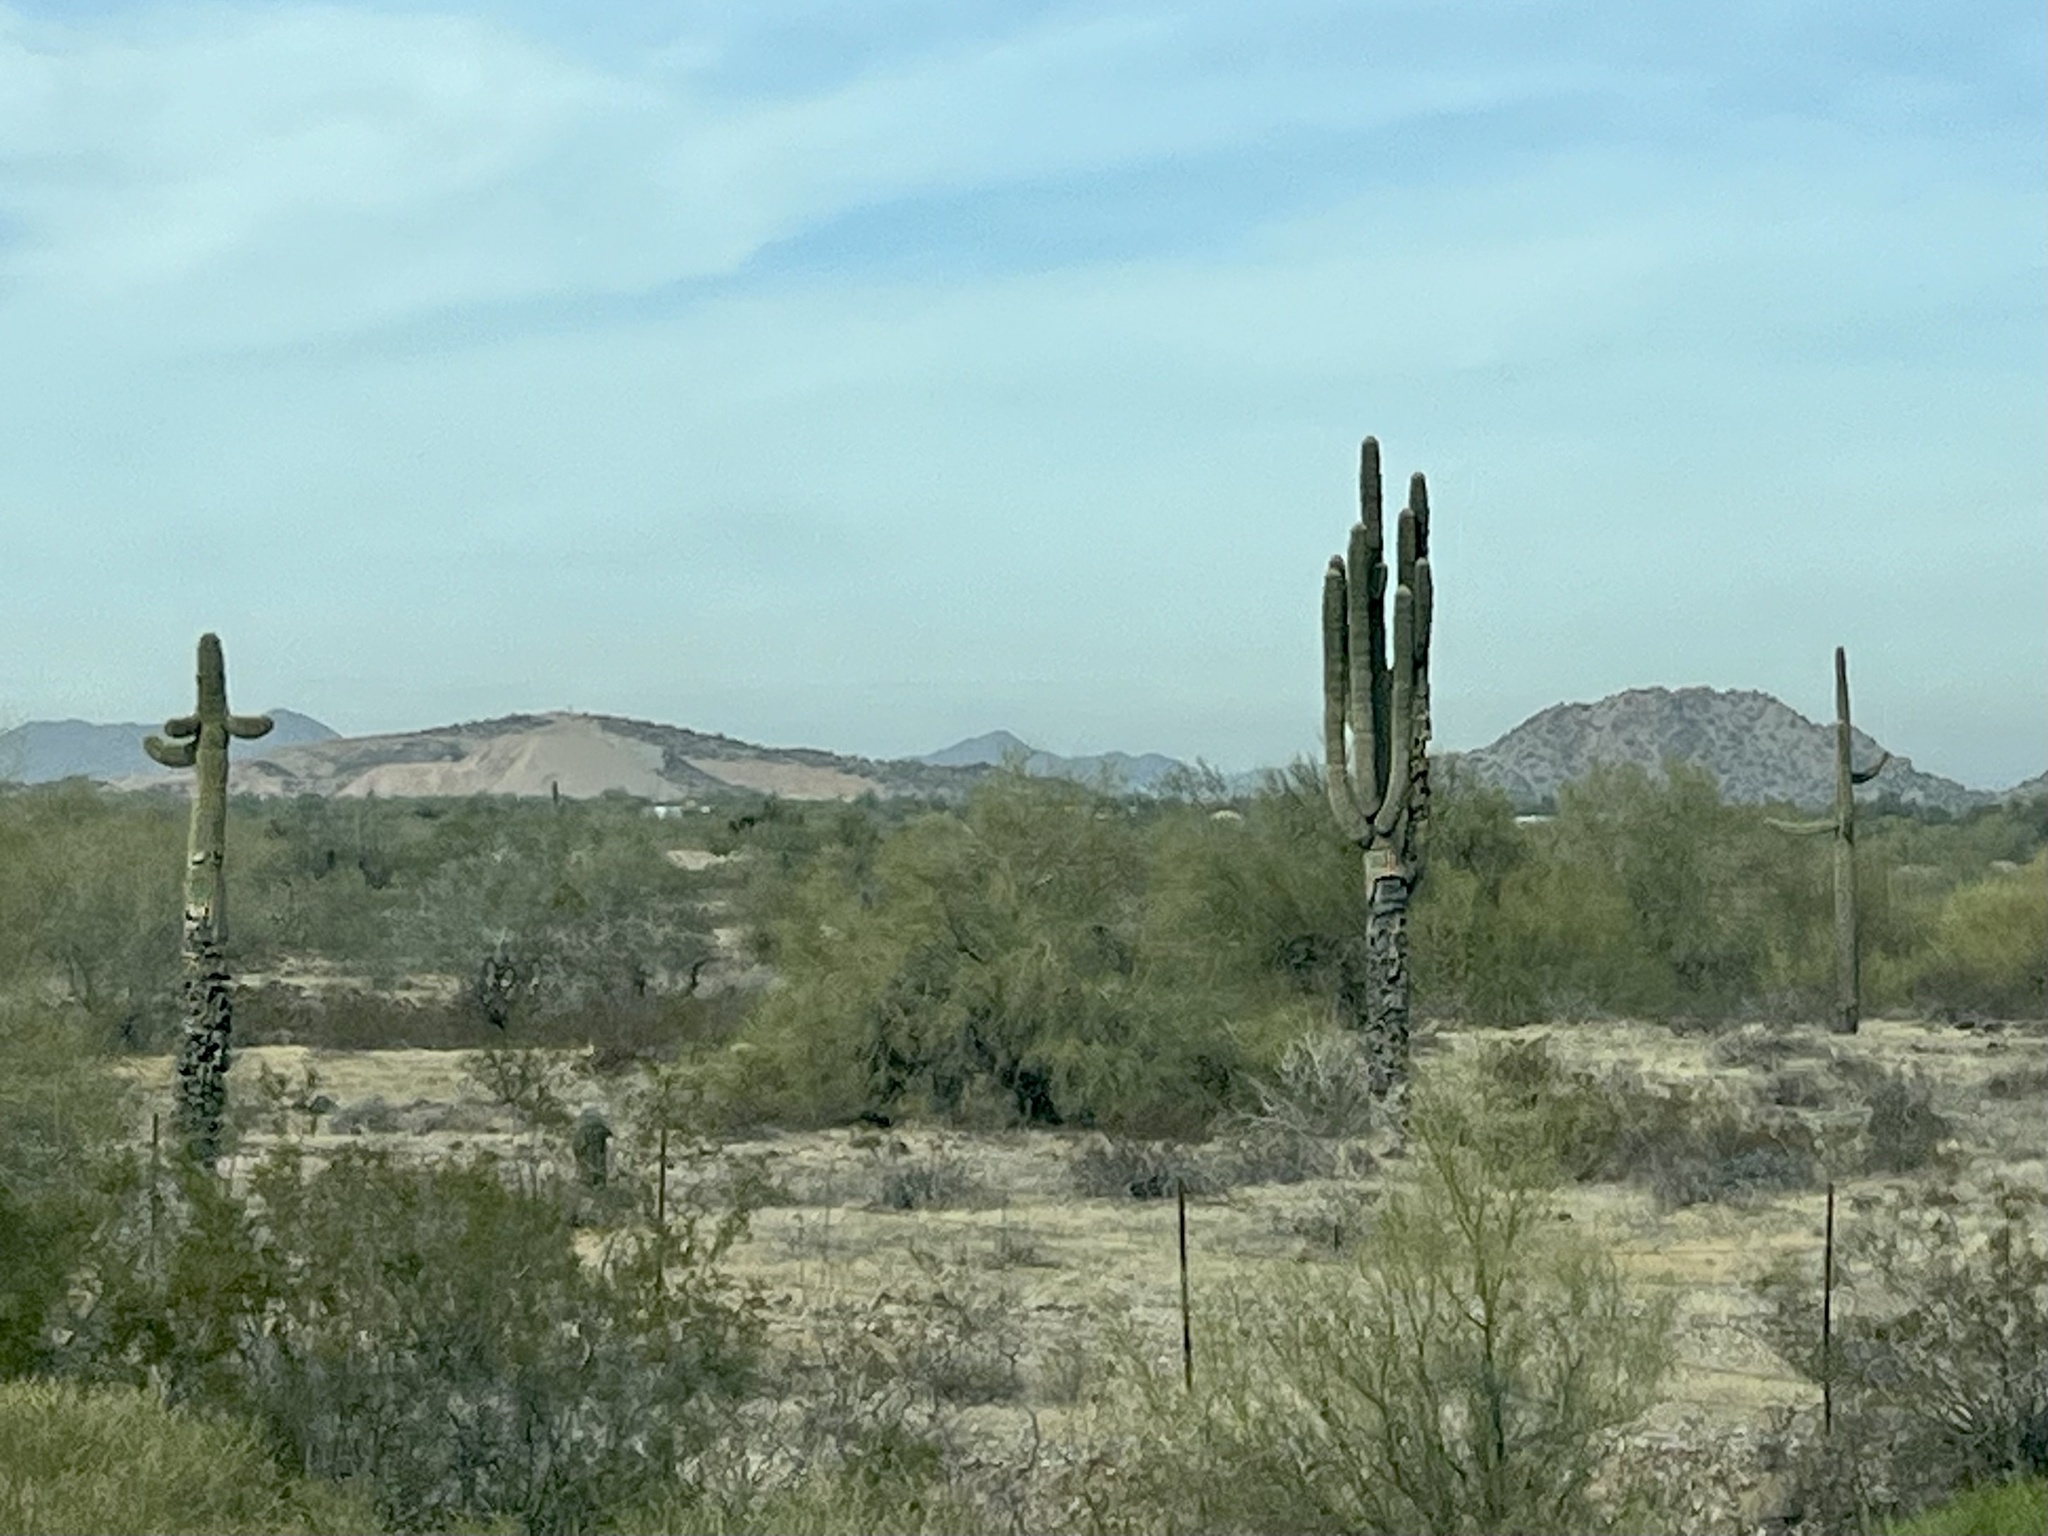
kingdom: Plantae
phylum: Tracheophyta
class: Magnoliopsida
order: Caryophyllales
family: Cactaceae
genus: Carnegiea
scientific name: Carnegiea gigantea
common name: Saguaro
